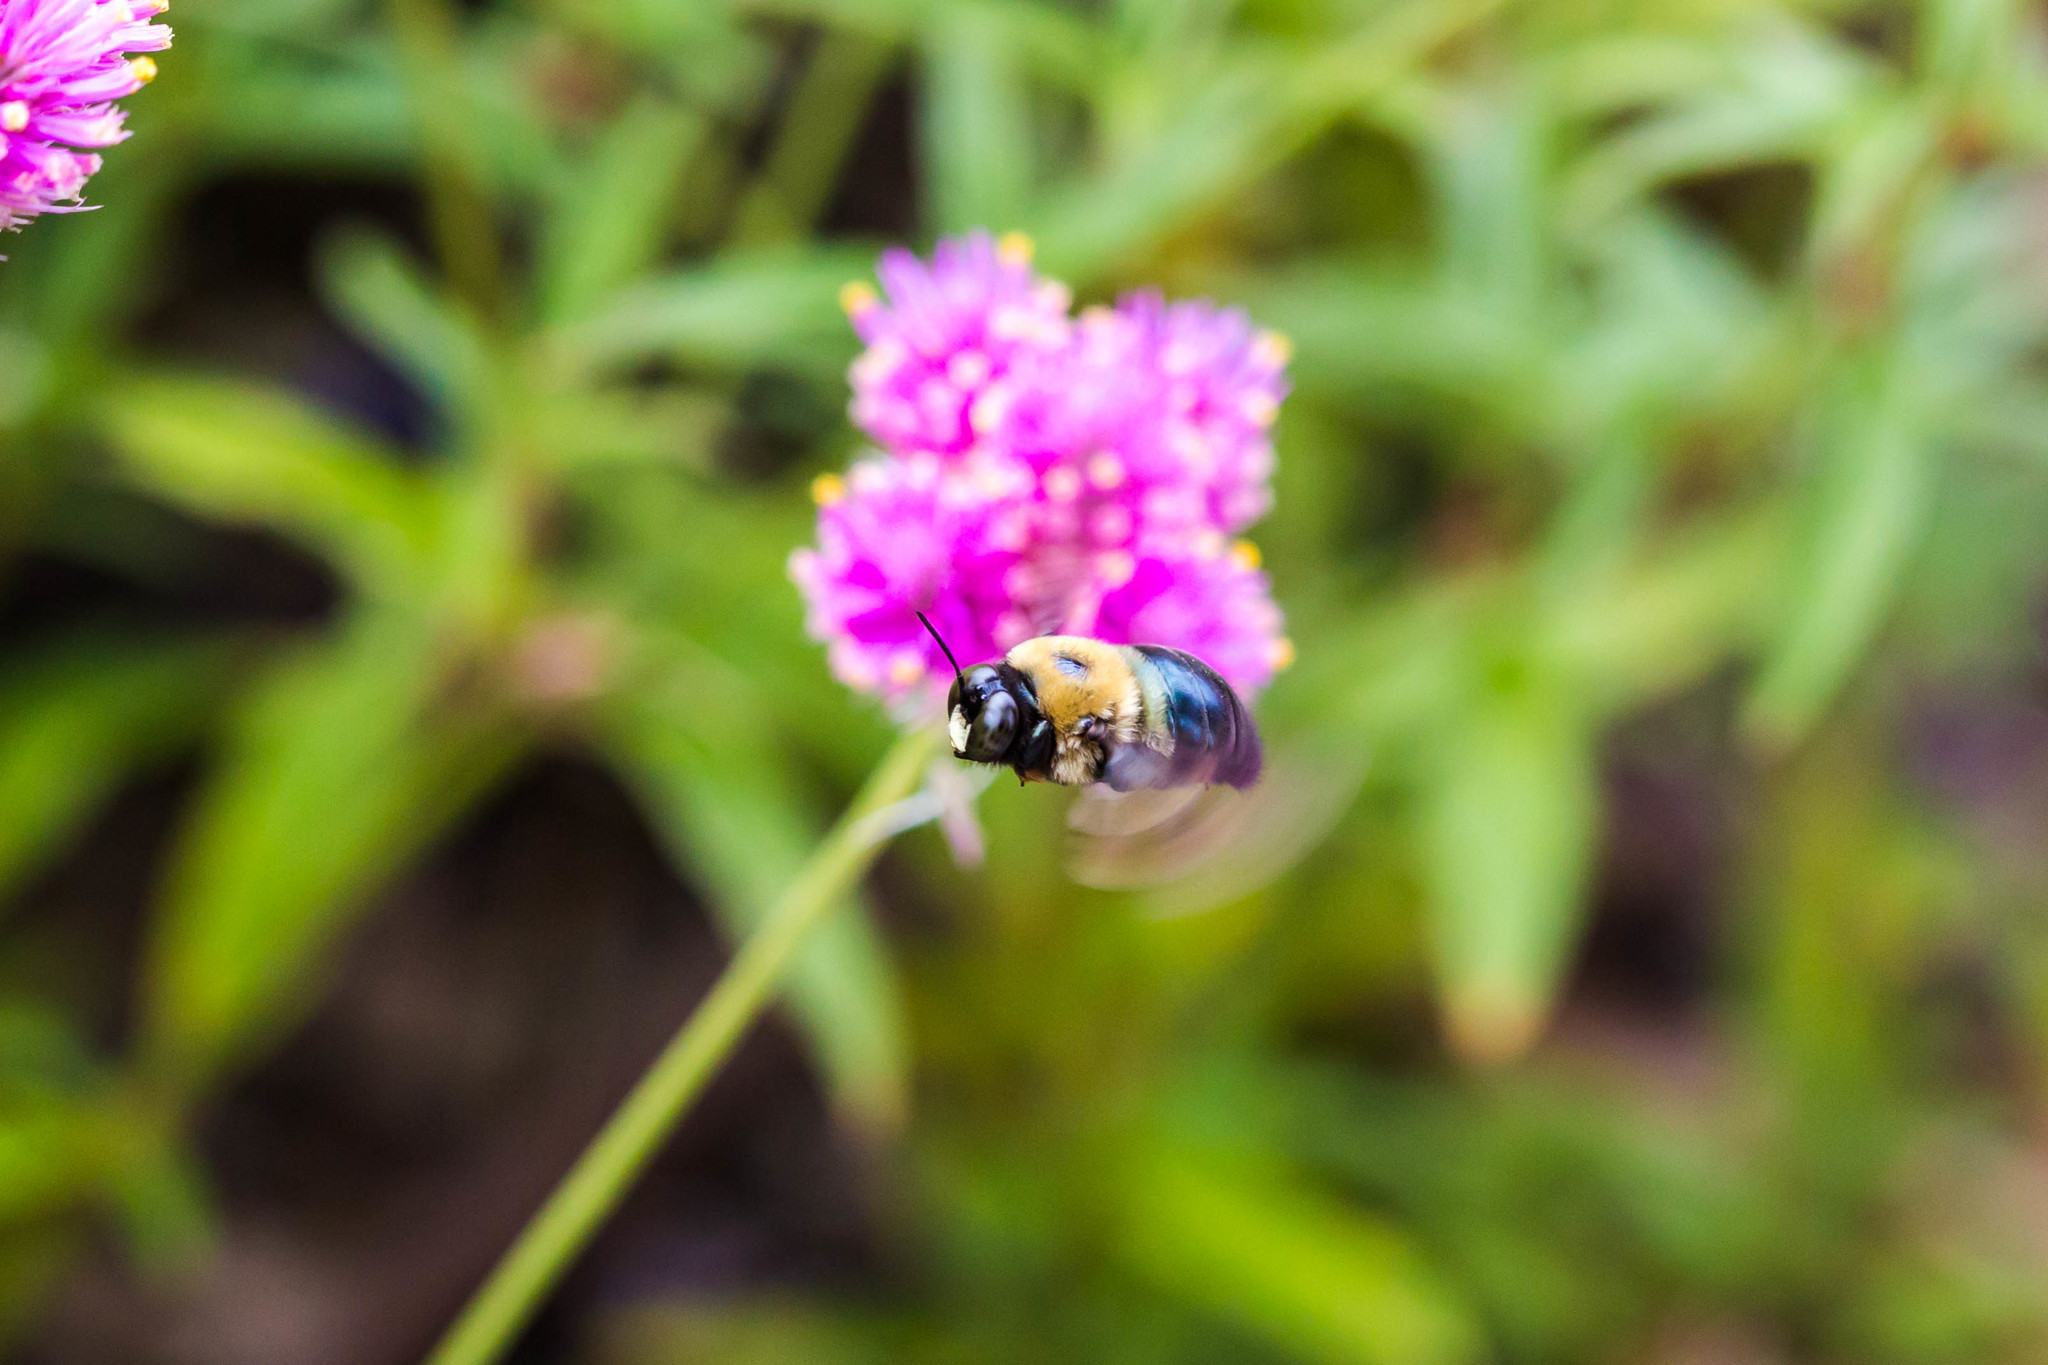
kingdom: Animalia
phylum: Arthropoda
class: Insecta
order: Hymenoptera
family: Apidae
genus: Xylocopa
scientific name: Xylocopa virginica
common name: Carpenter bee
